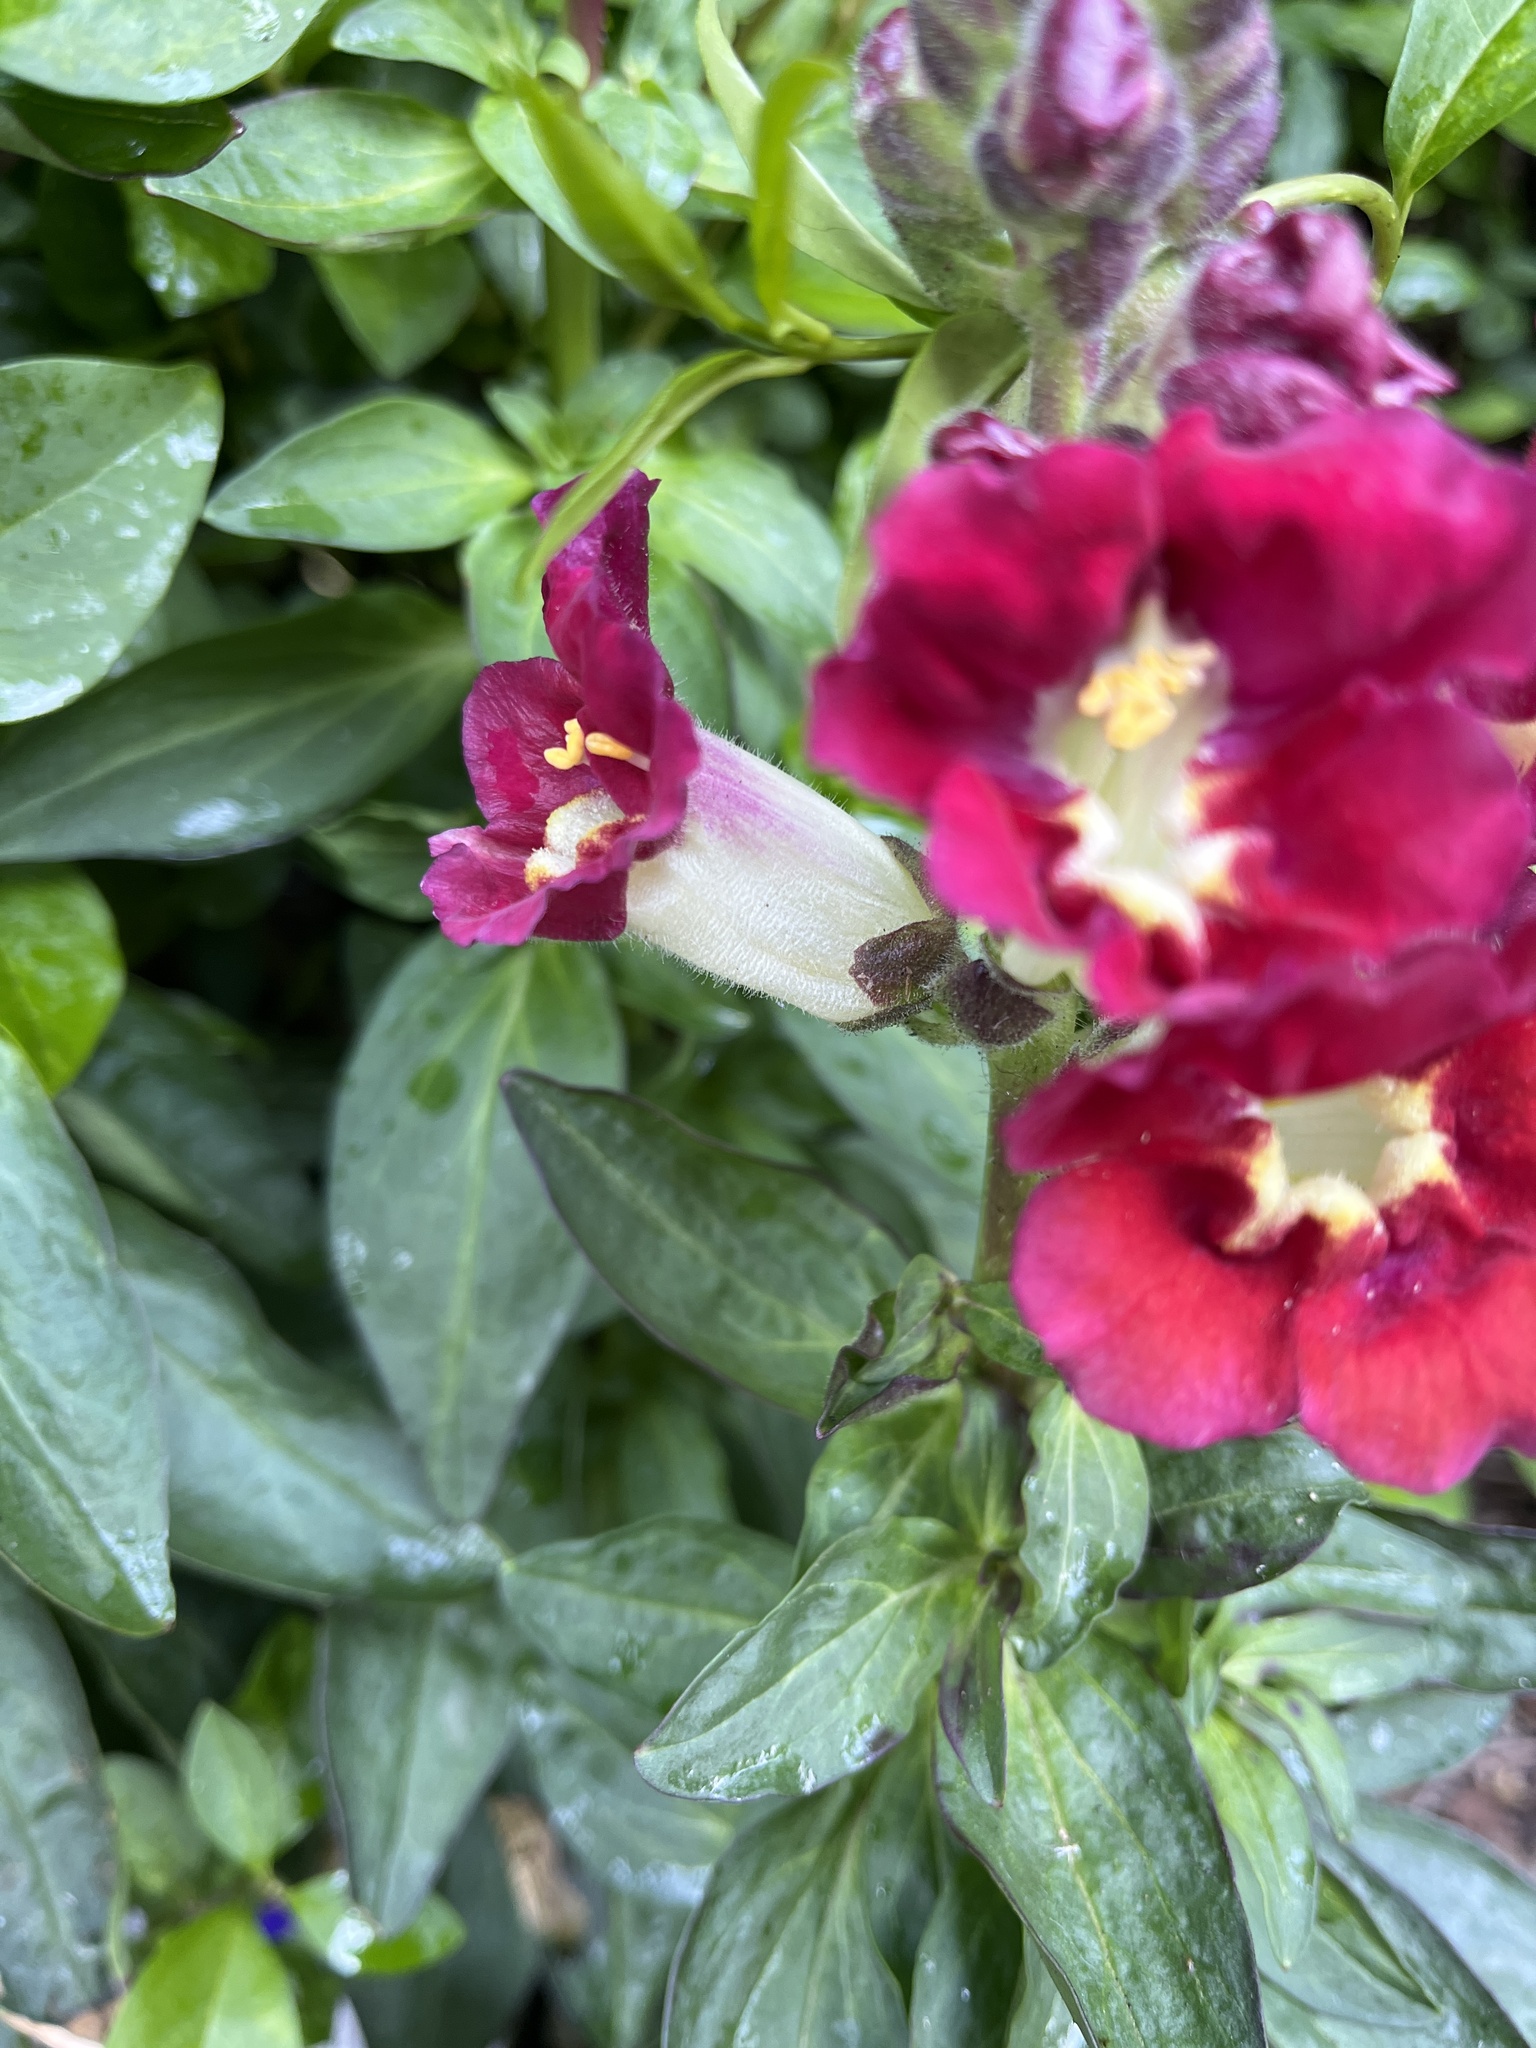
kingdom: Plantae
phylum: Tracheophyta
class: Magnoliopsida
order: Lamiales
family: Plantaginaceae
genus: Antirrhinum
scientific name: Antirrhinum majus
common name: Snapdragon
